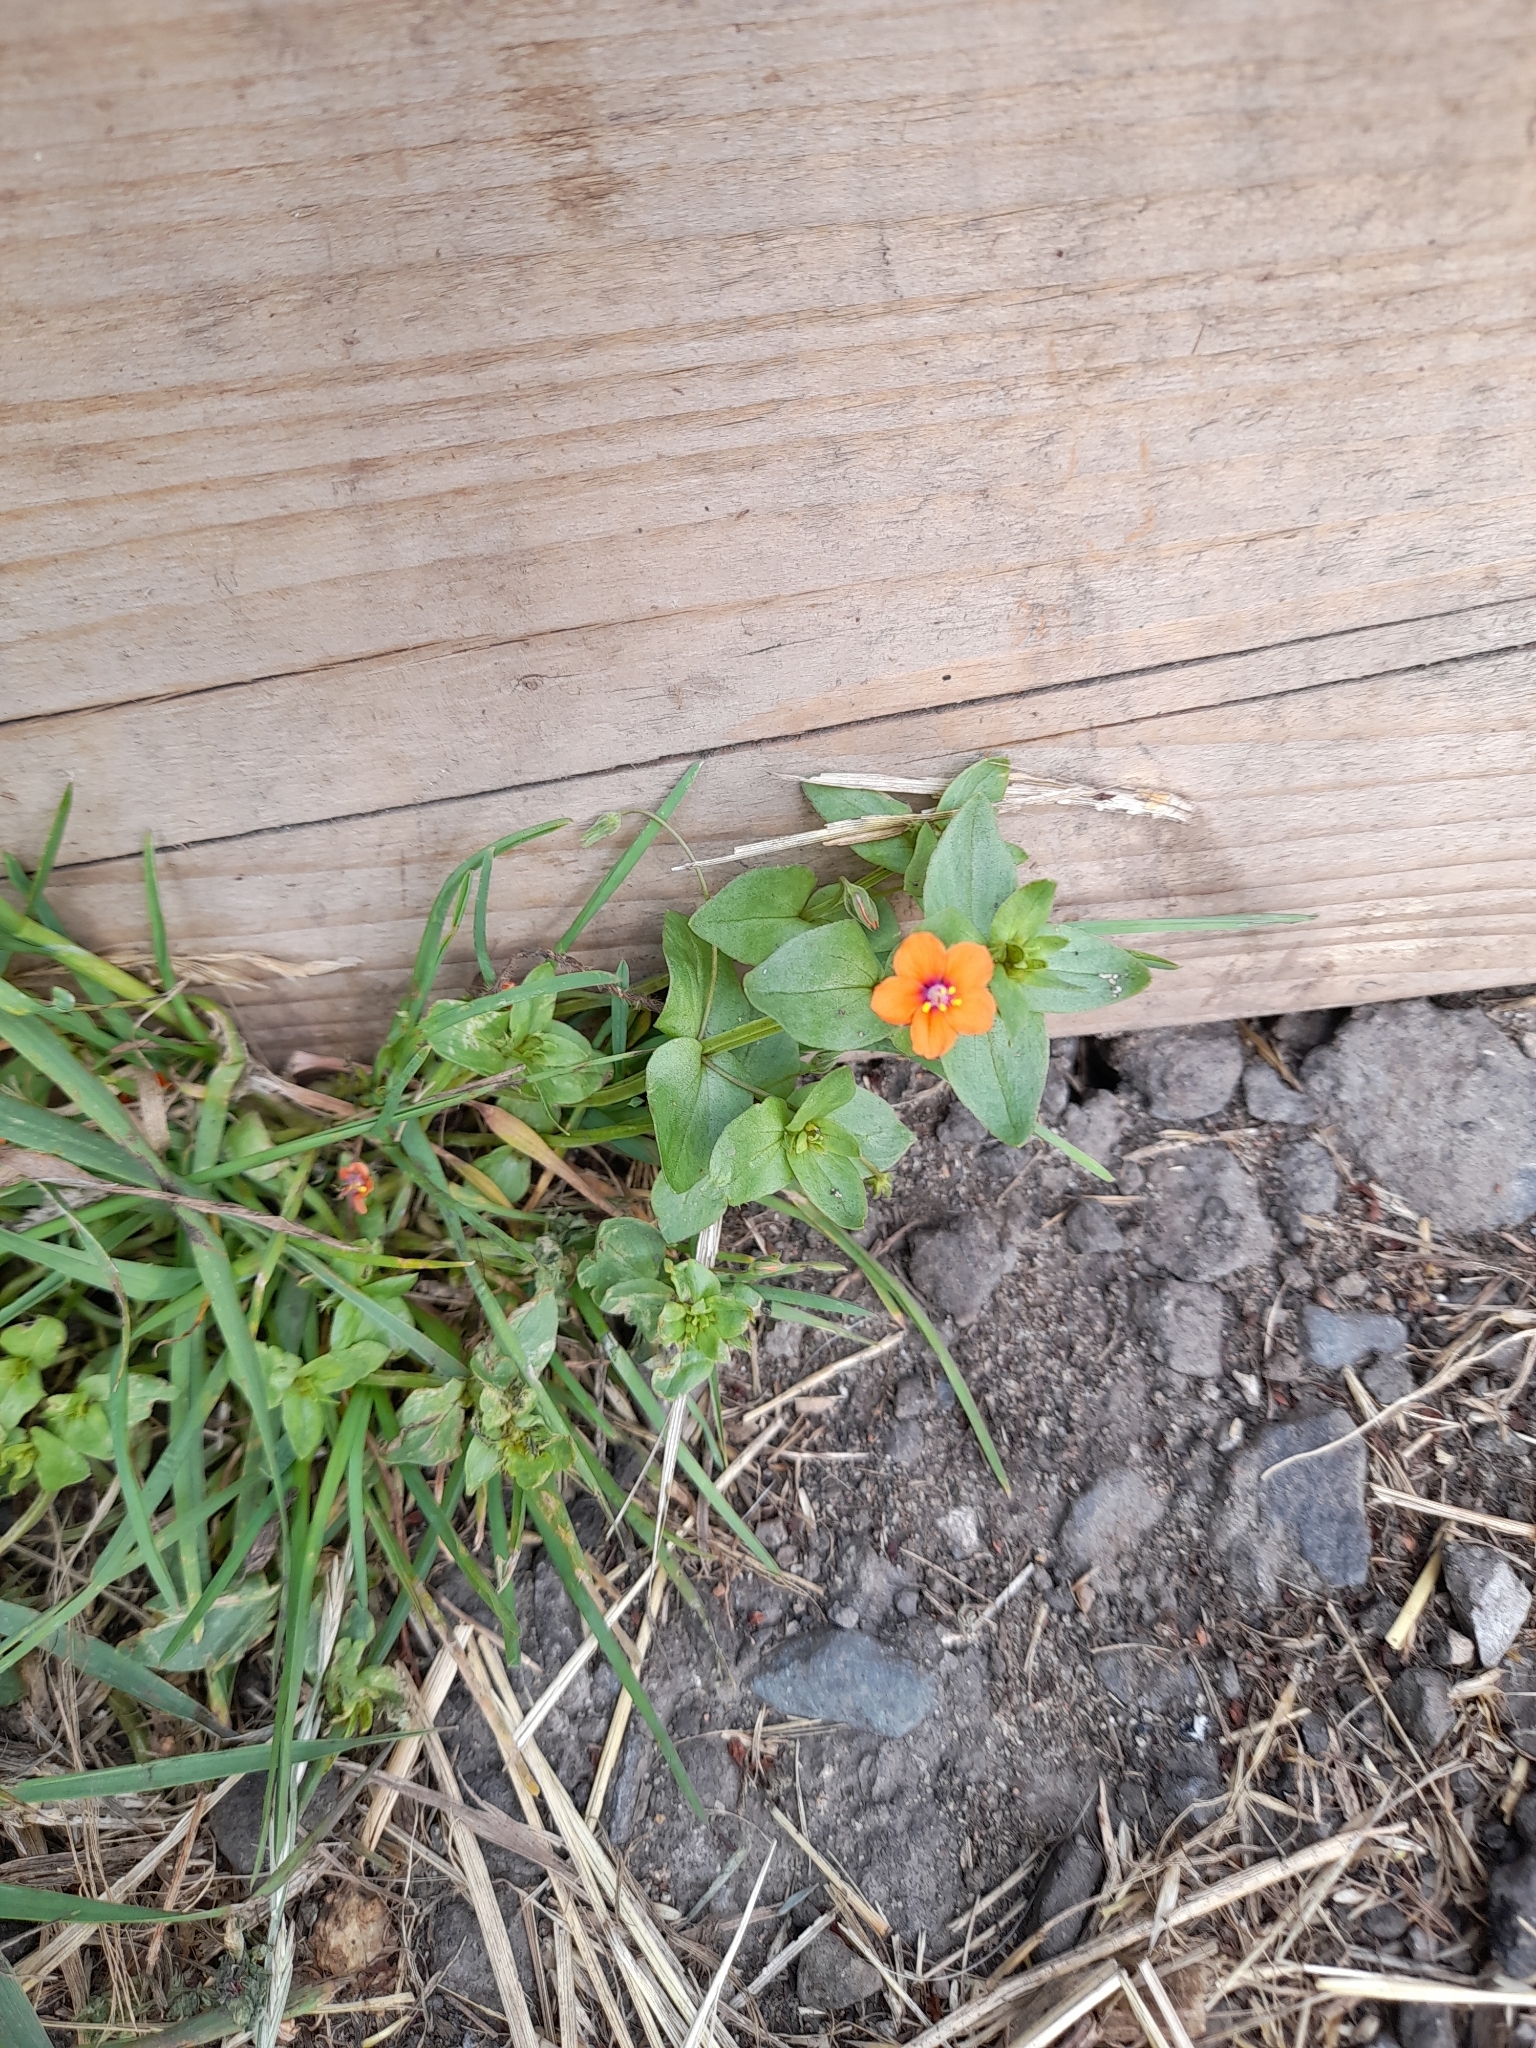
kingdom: Plantae
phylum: Tracheophyta
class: Magnoliopsida
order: Ericales
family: Primulaceae
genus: Lysimachia
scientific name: Lysimachia arvensis
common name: Scarlet pimpernel
